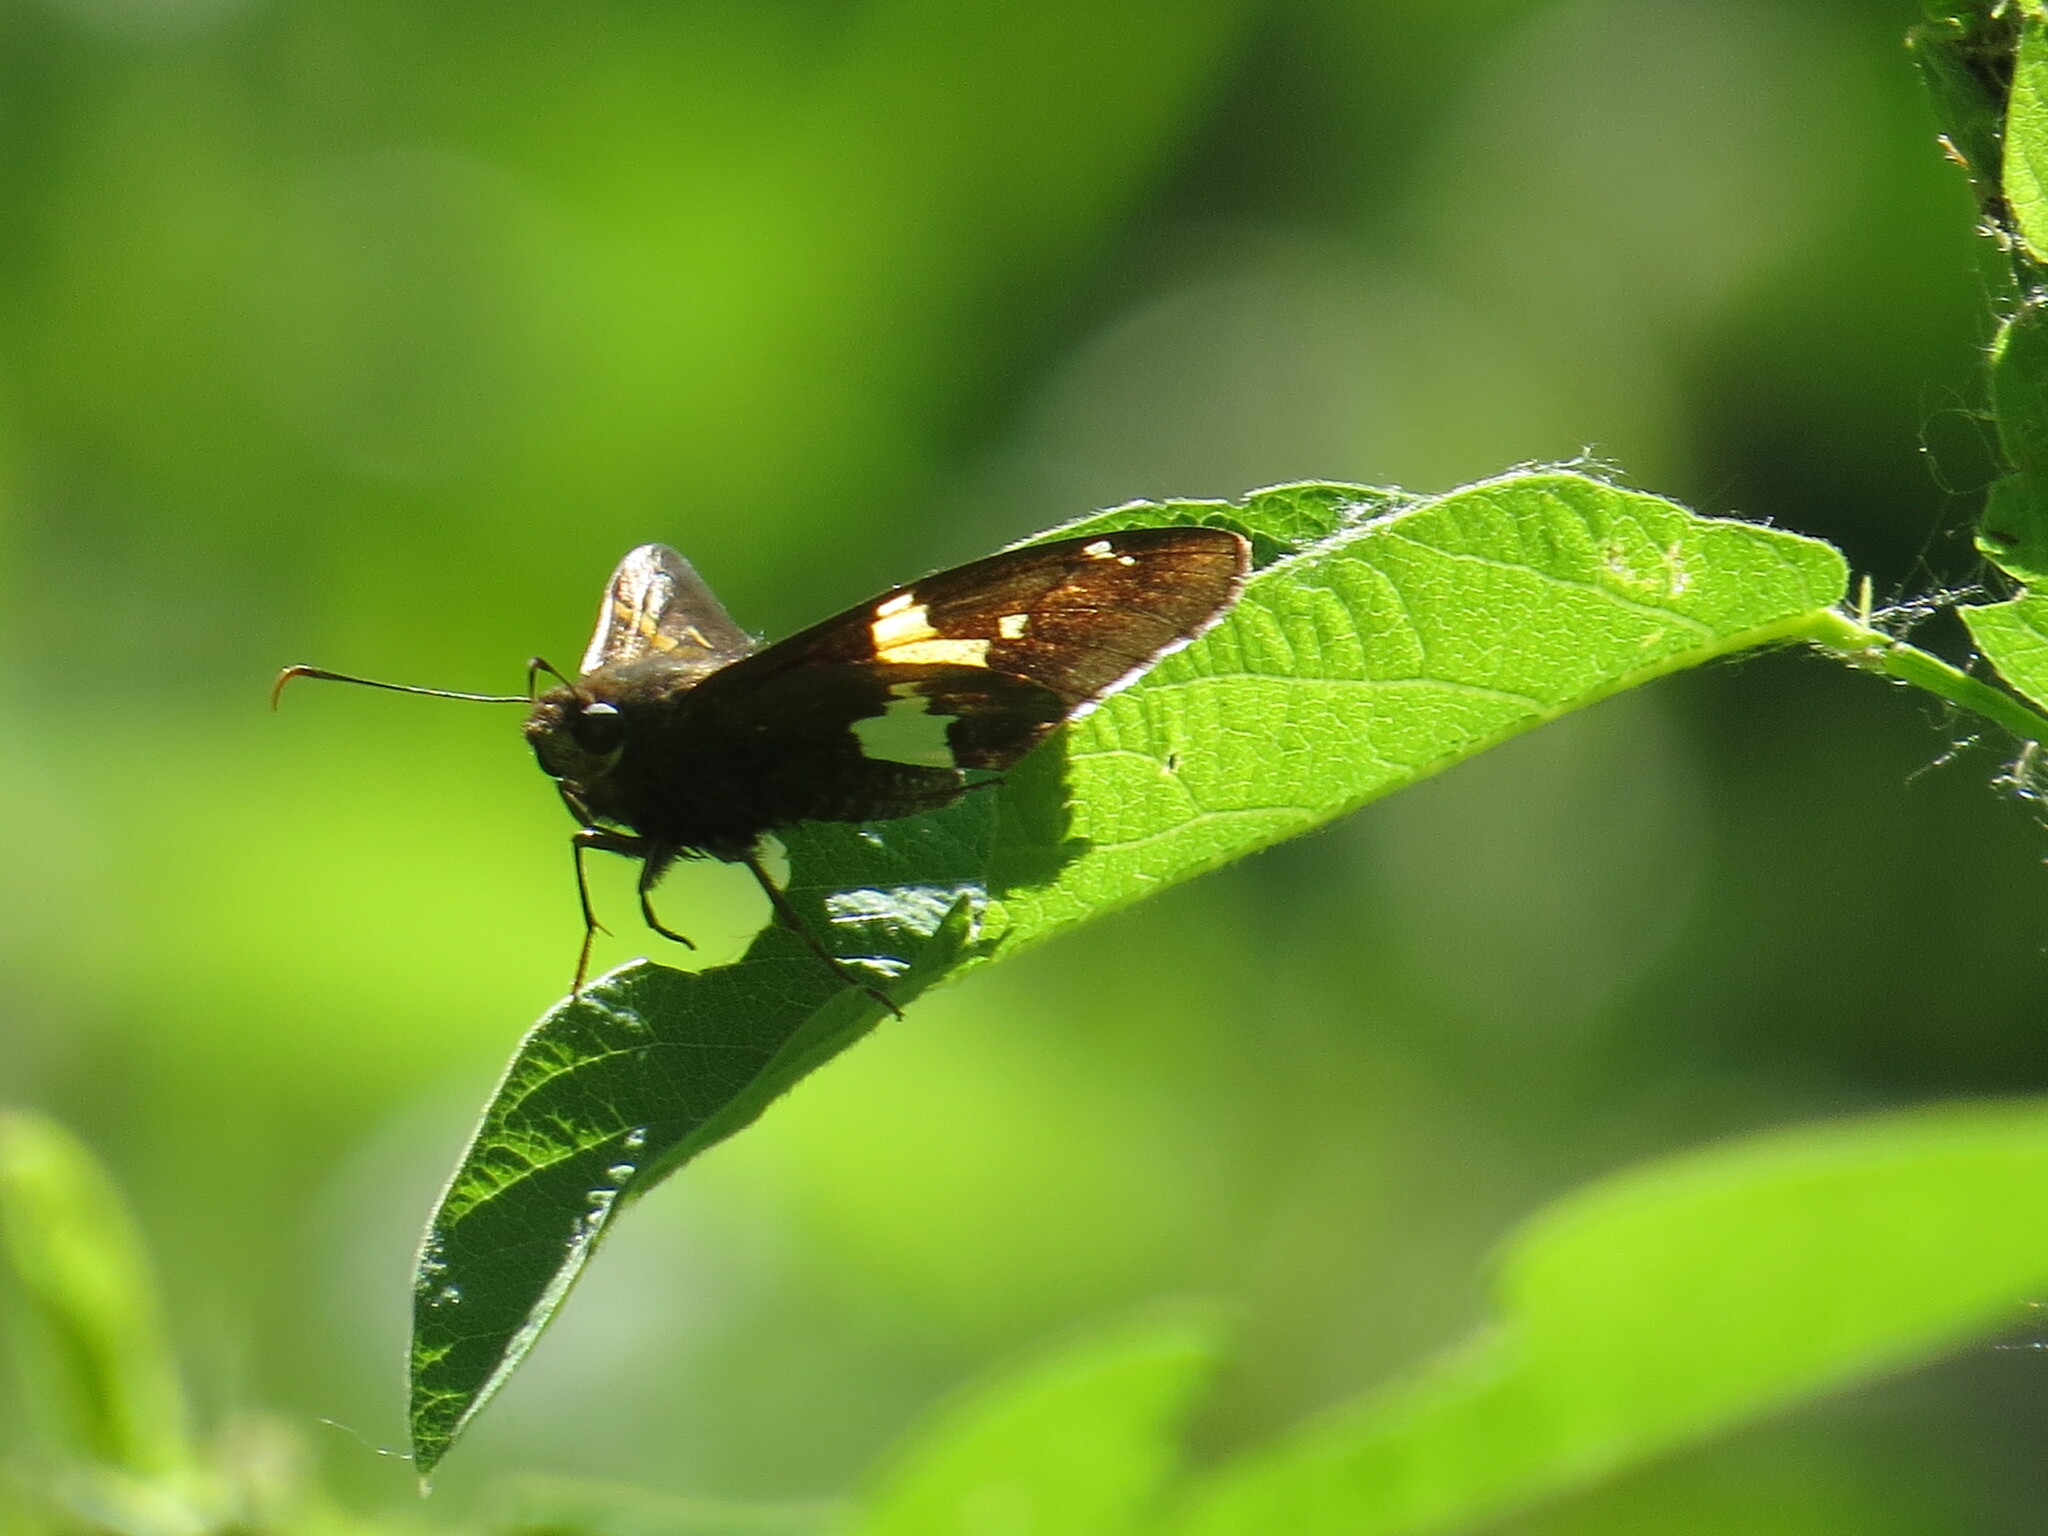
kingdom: Animalia
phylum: Arthropoda
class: Insecta
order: Lepidoptera
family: Hesperiidae
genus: Epargyreus
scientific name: Epargyreus clarus
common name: Silver-spotted skipper
